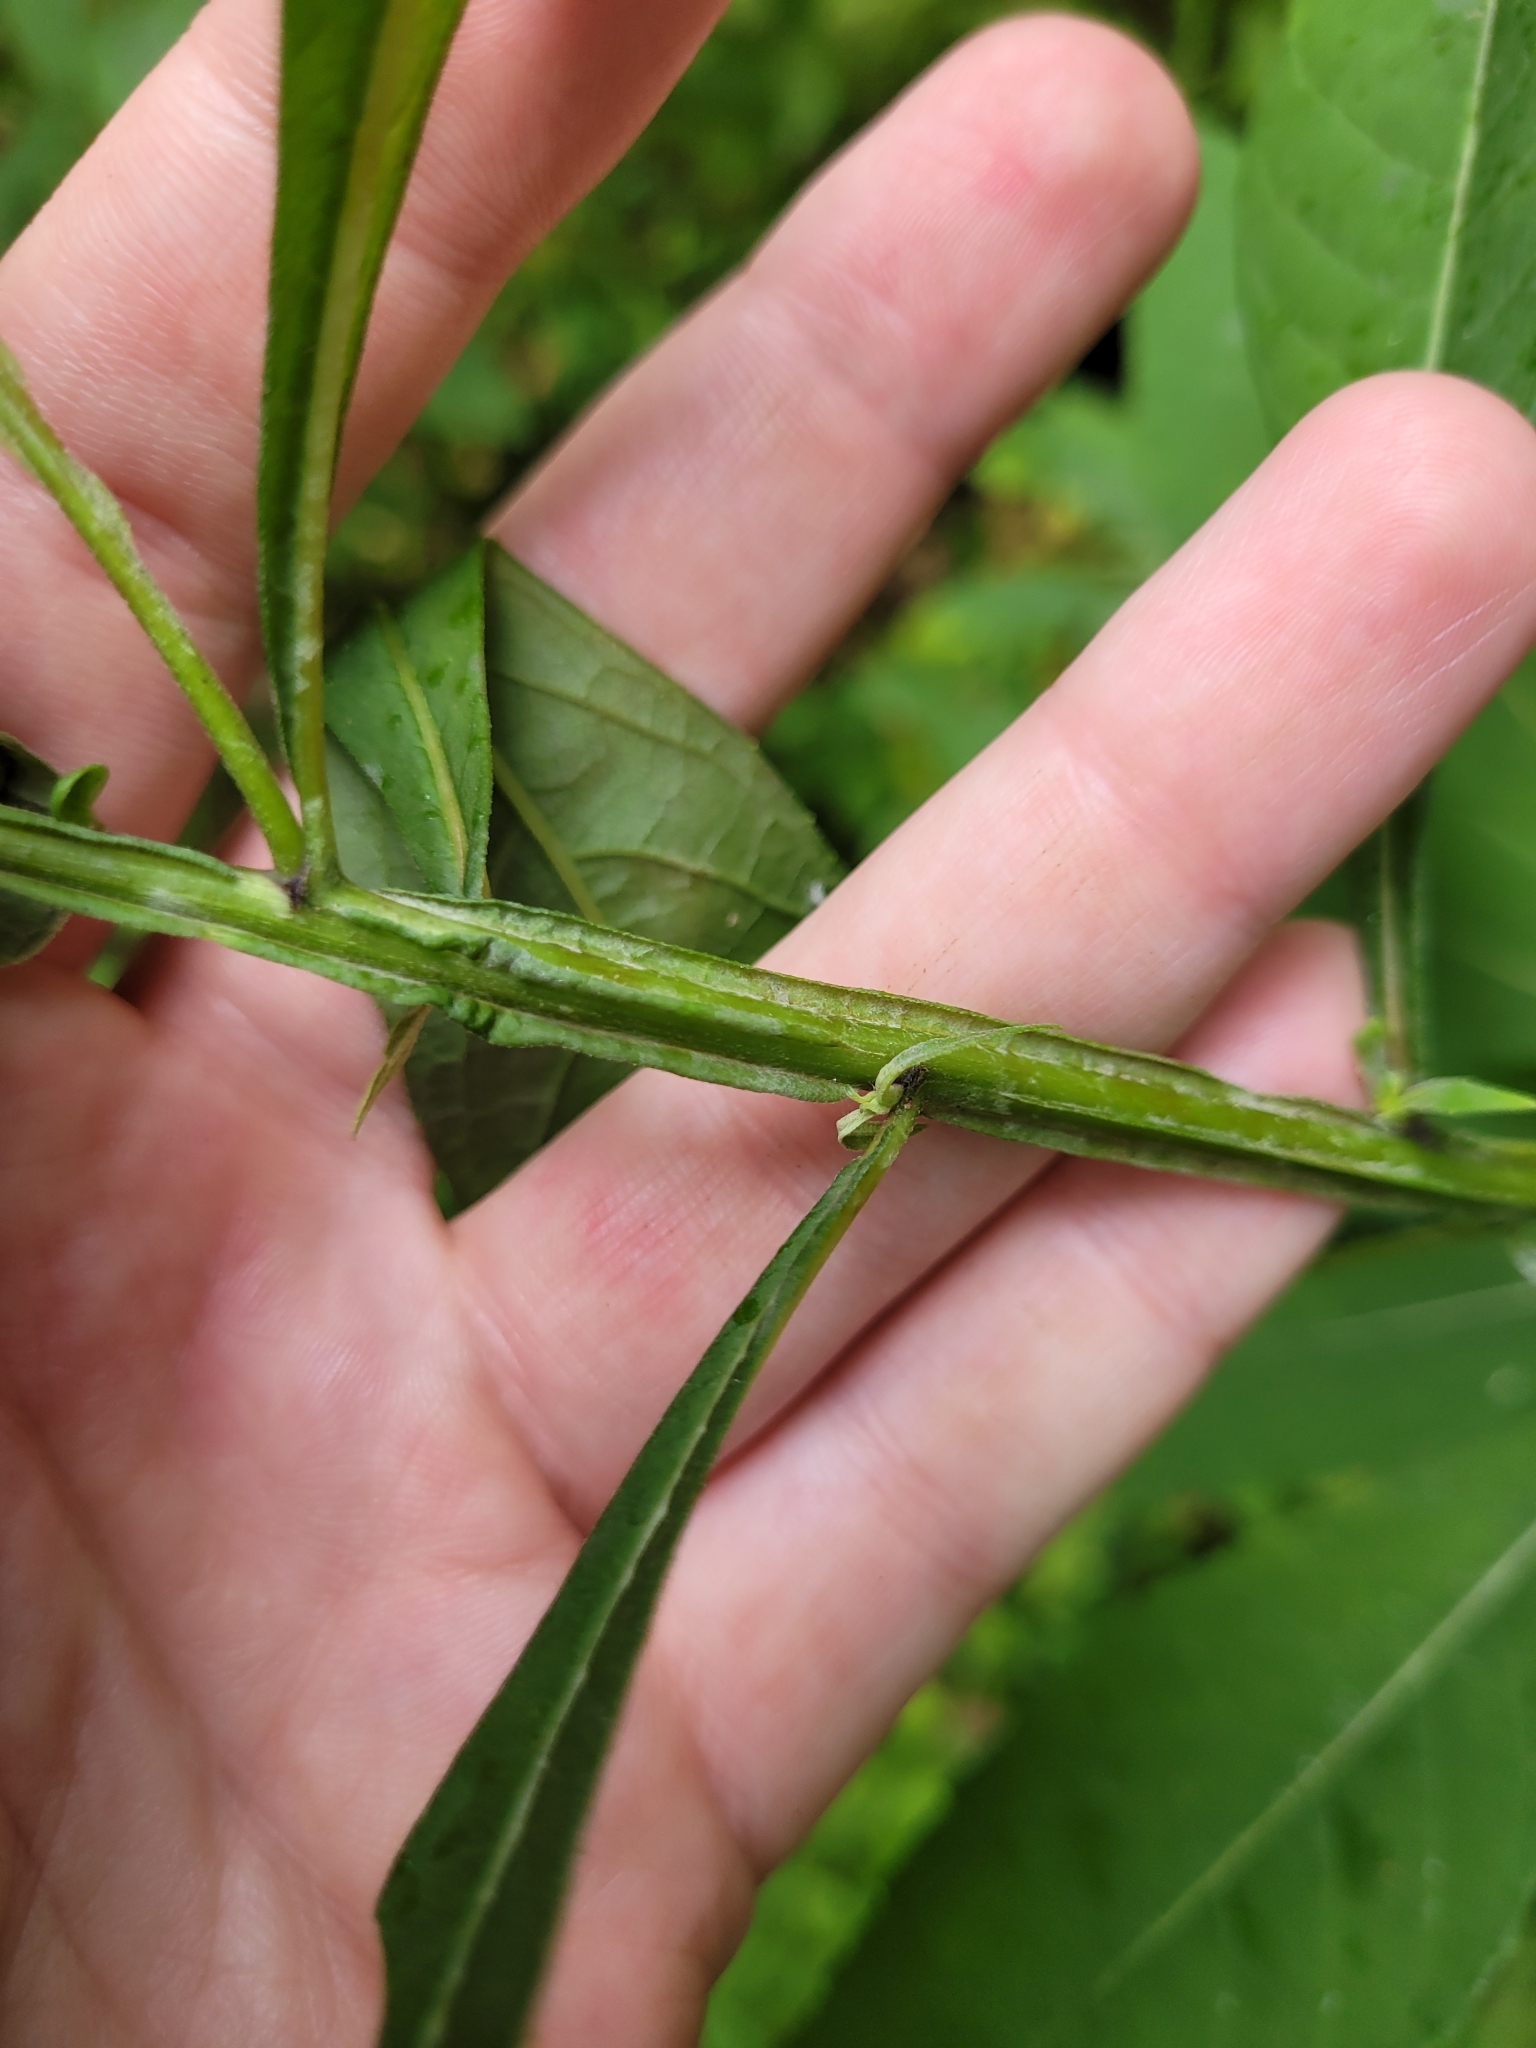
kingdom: Plantae
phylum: Tracheophyta
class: Magnoliopsida
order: Asterales
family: Asteraceae
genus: Verbesina
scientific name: Verbesina alternifolia
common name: Wingstem
